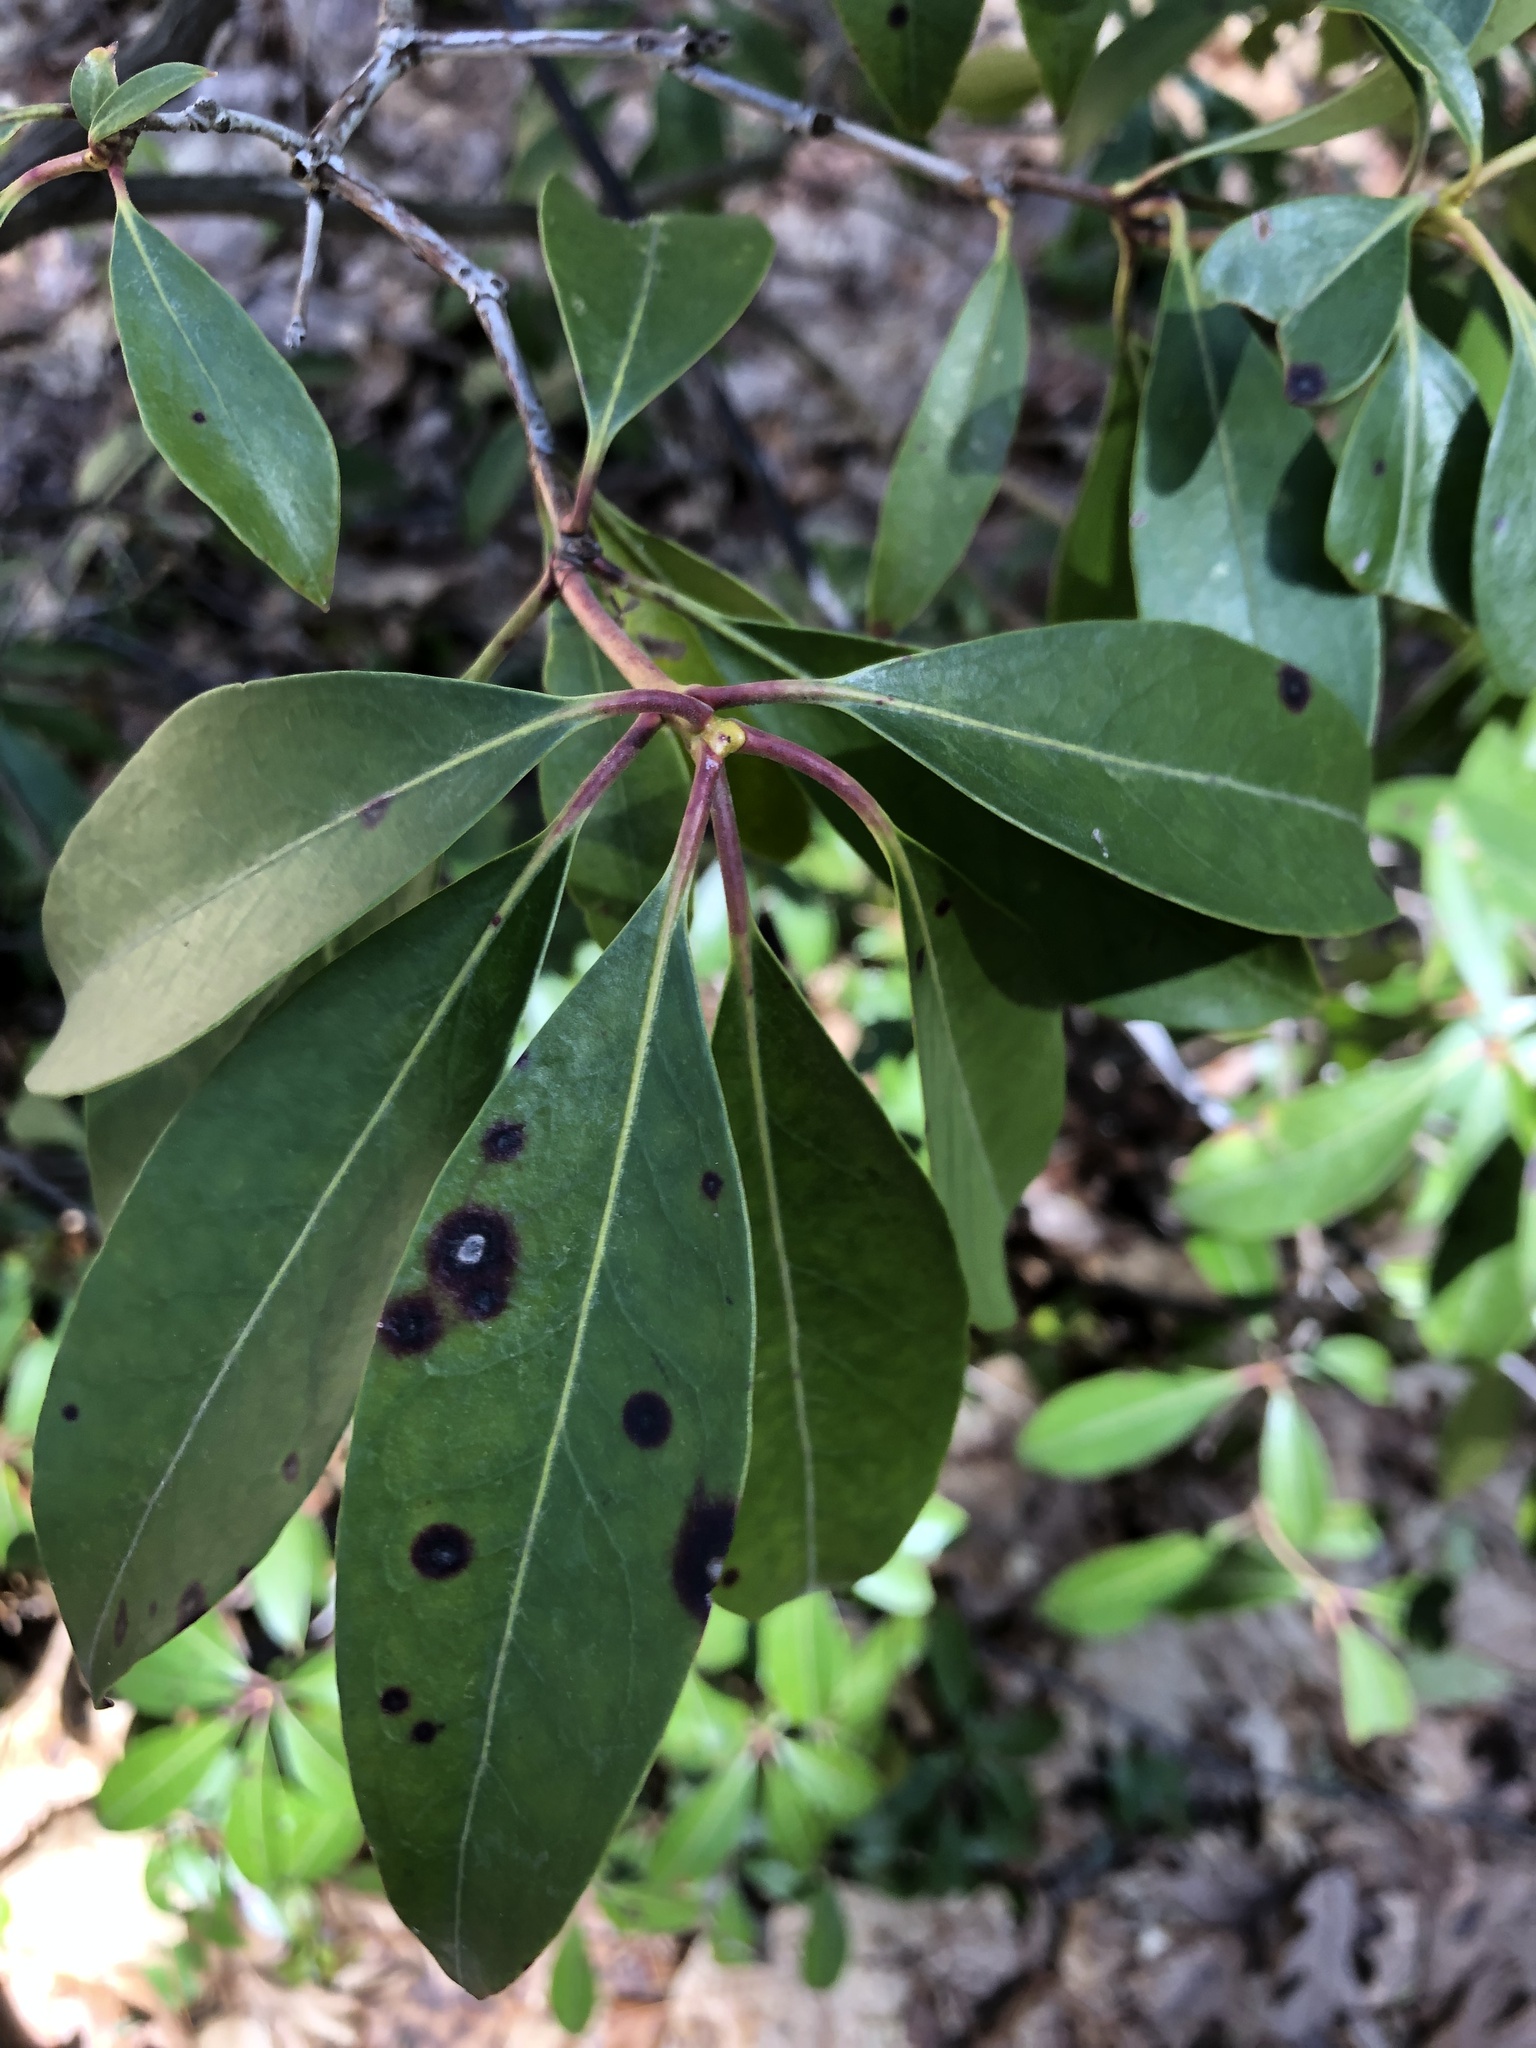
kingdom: Plantae
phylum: Tracheophyta
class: Magnoliopsida
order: Ericales
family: Ericaceae
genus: Kalmia
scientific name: Kalmia latifolia
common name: Mountain-laurel
